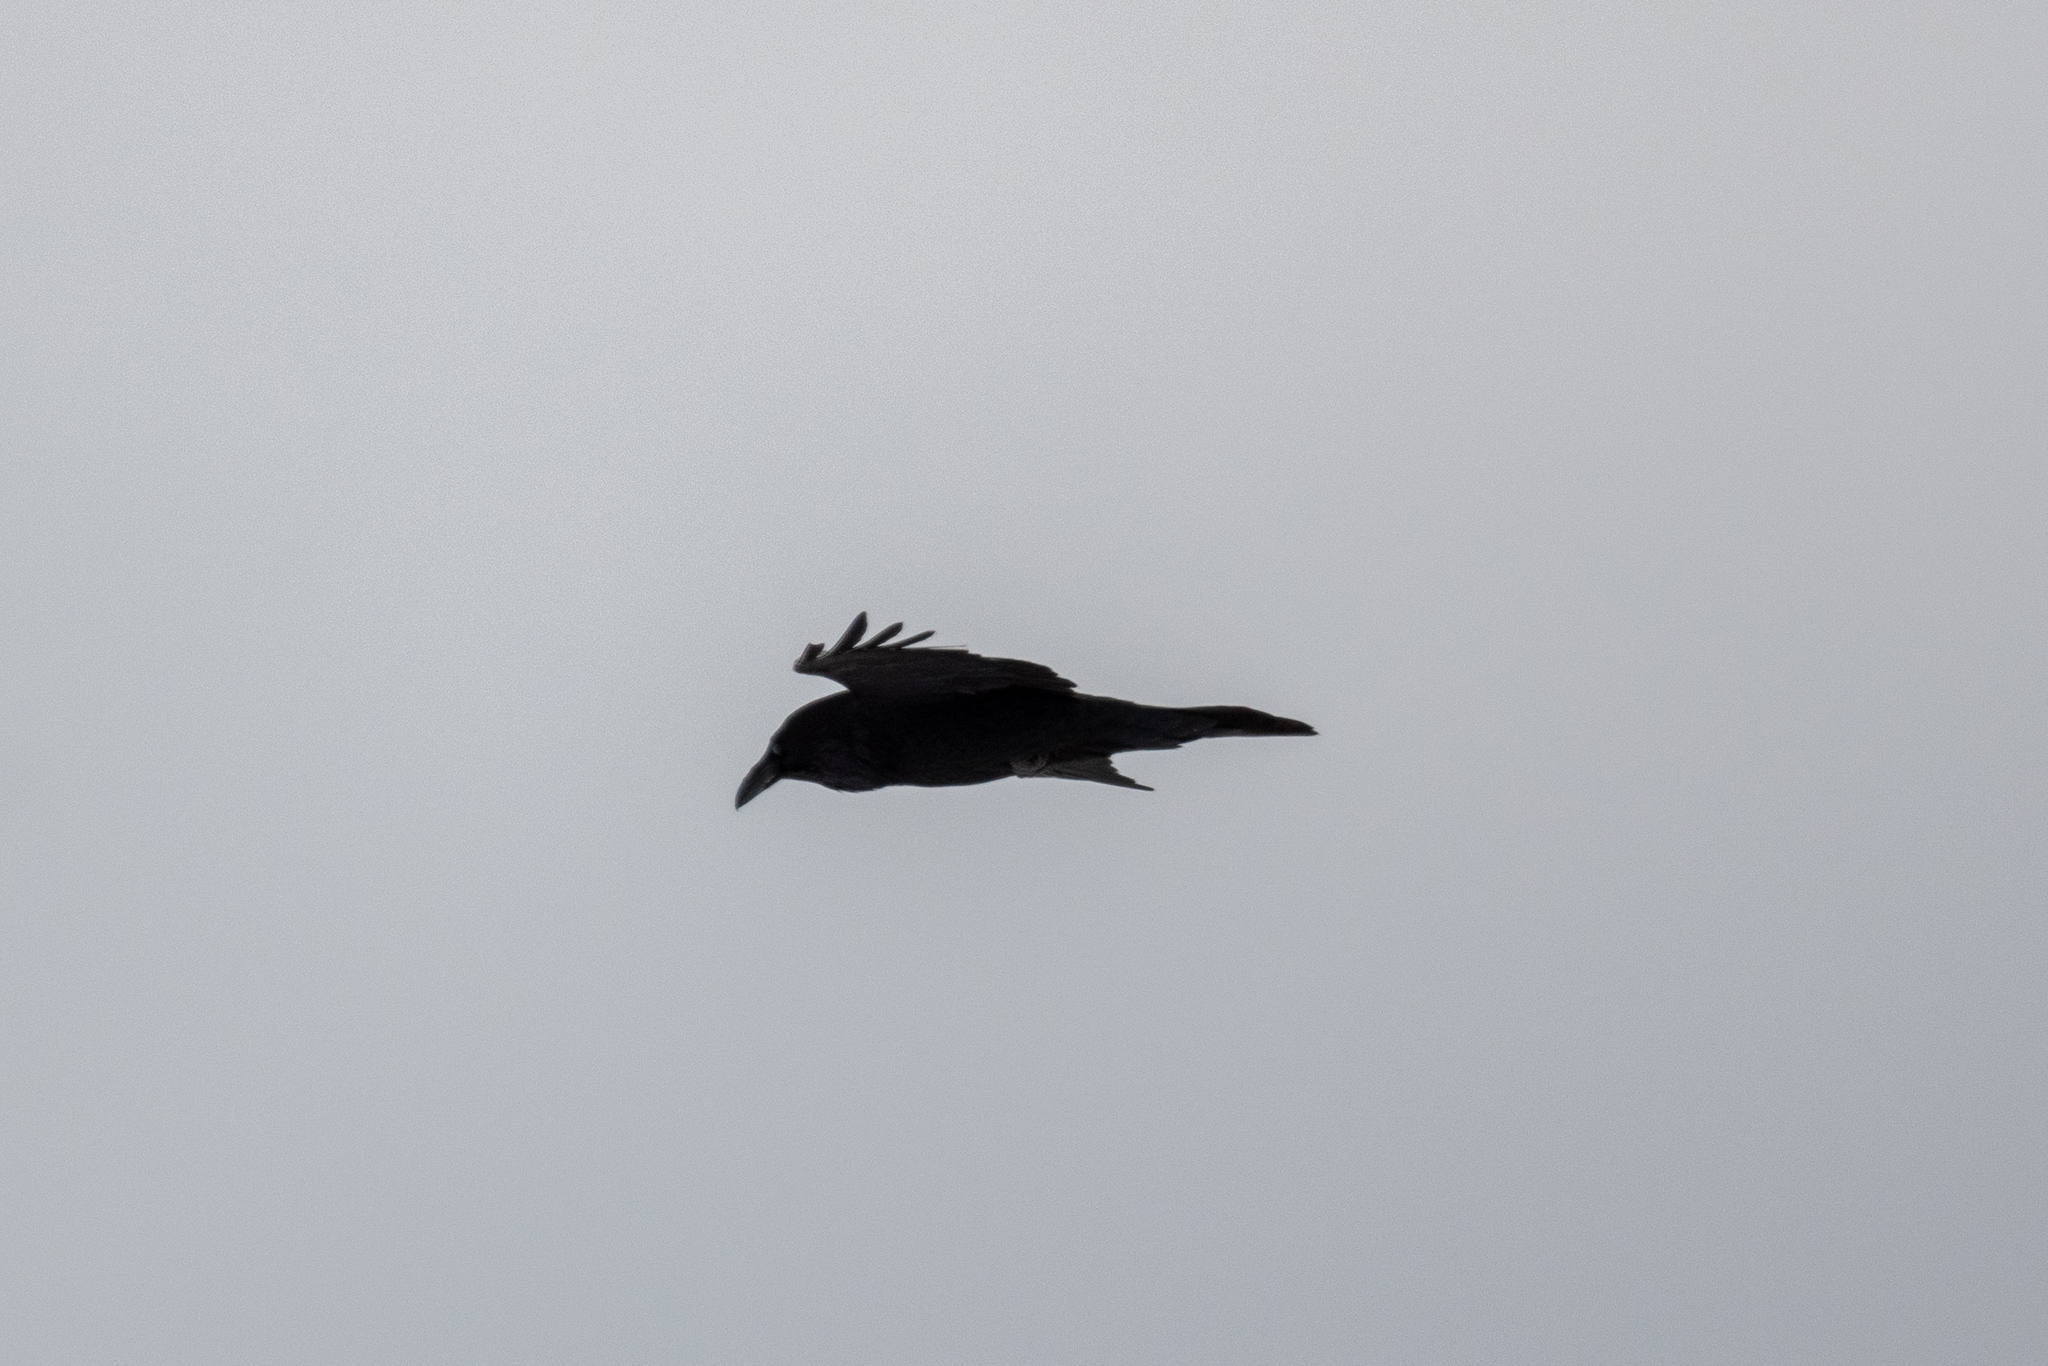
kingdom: Animalia
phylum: Chordata
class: Aves
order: Passeriformes
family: Corvidae
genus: Corvus
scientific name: Corvus corax
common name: Common raven
